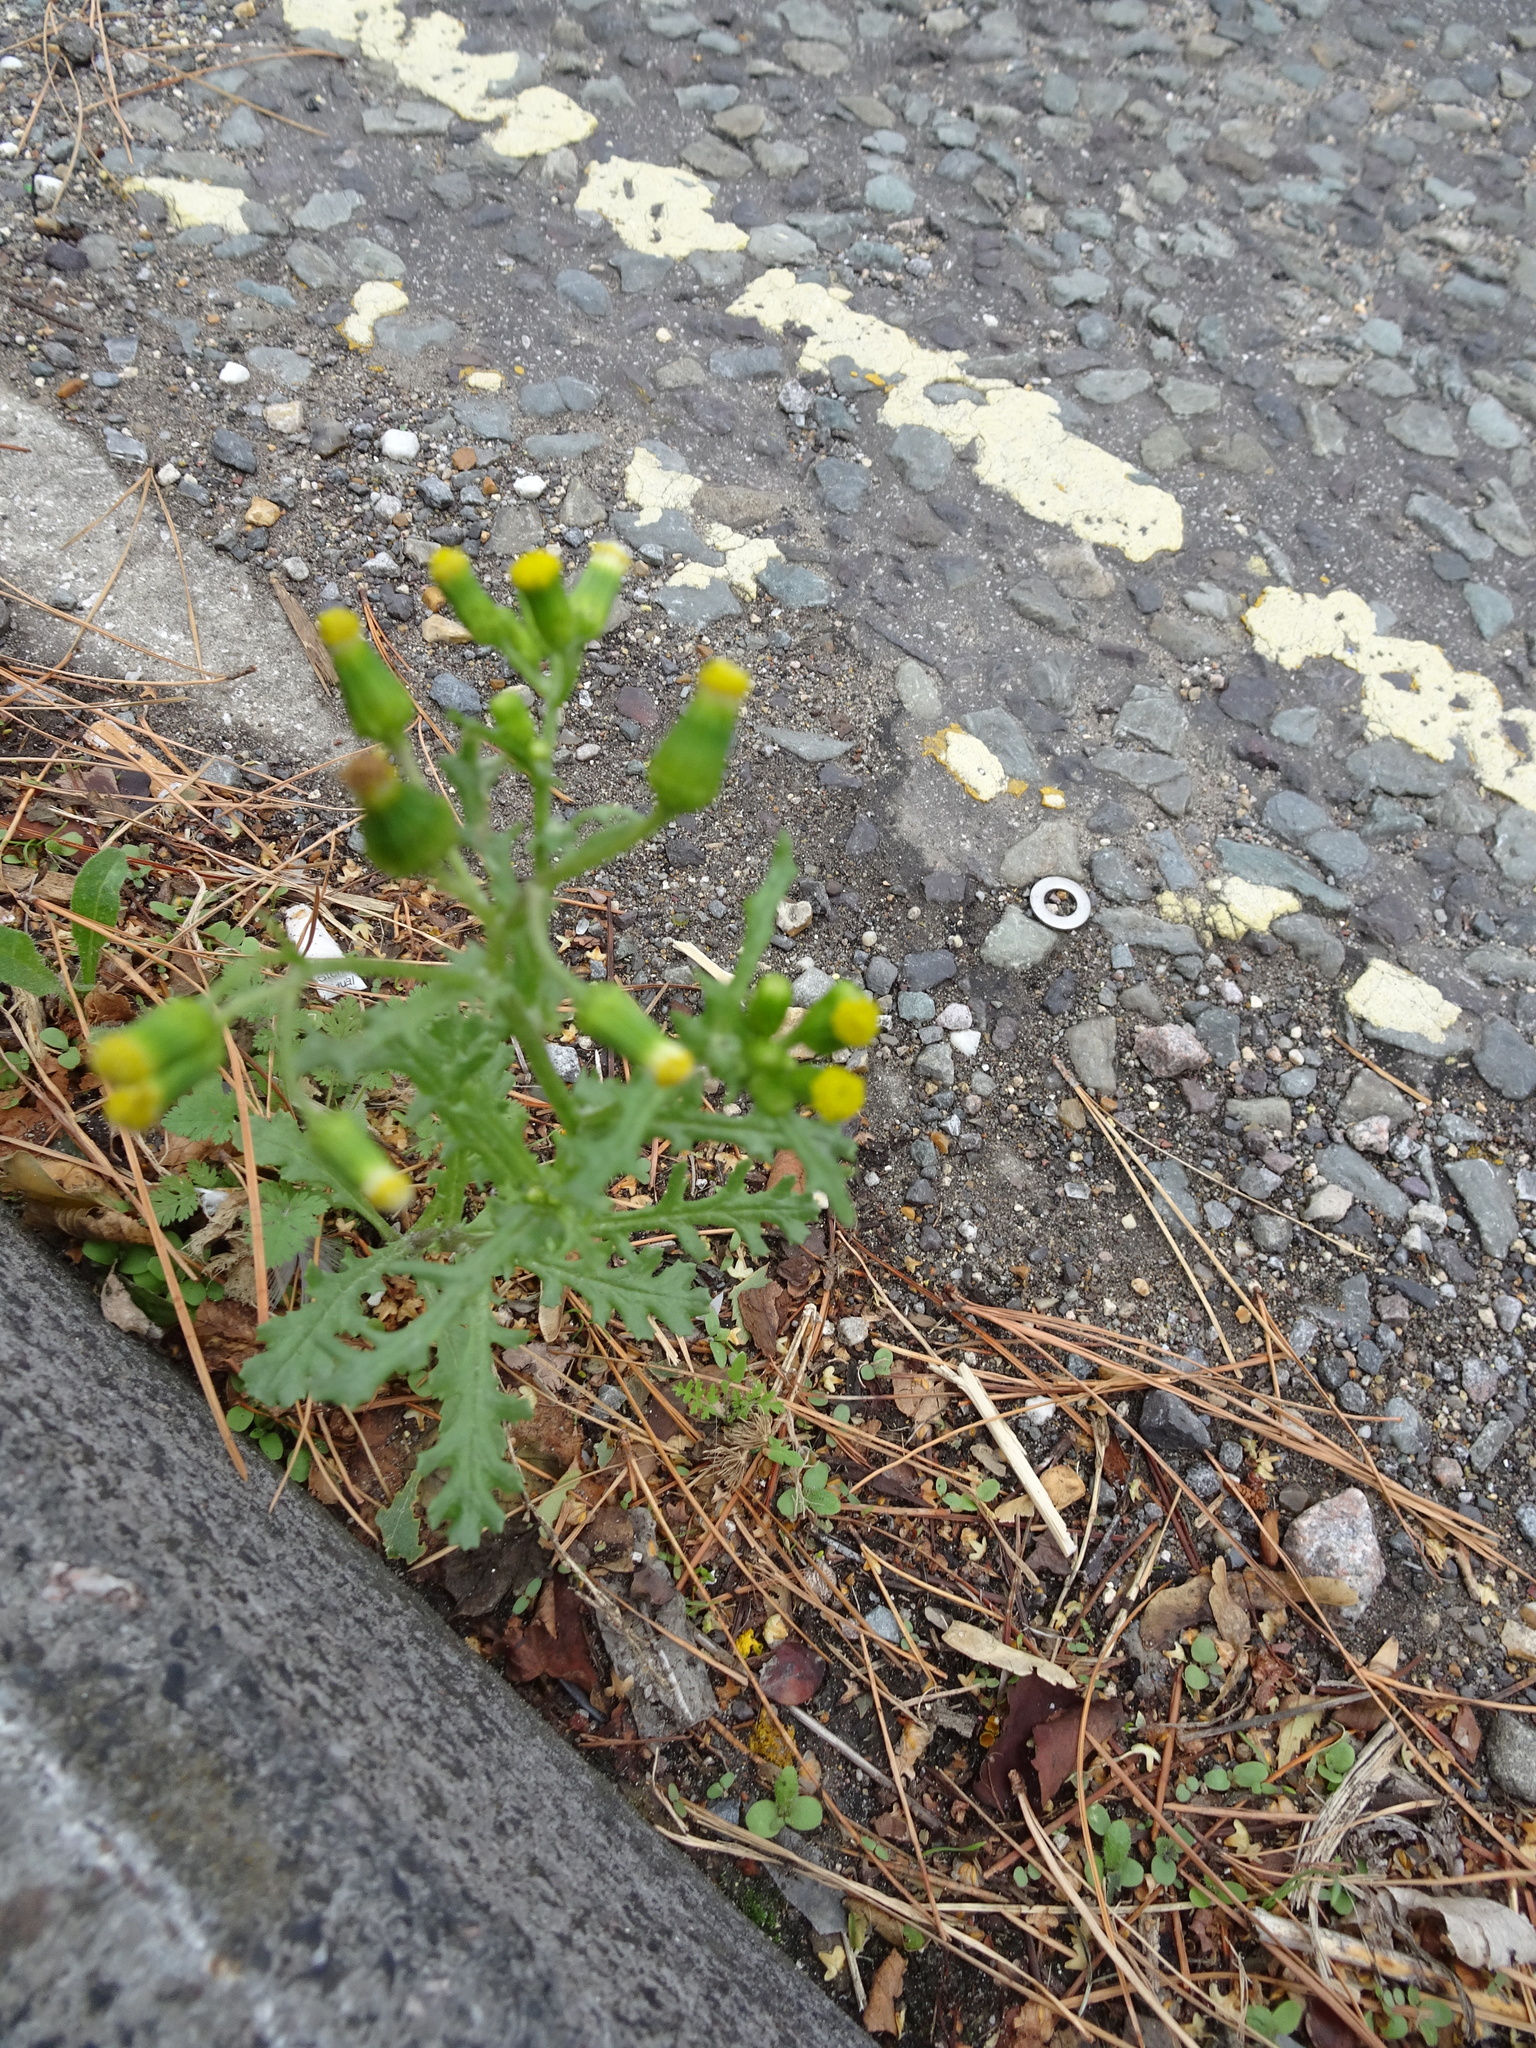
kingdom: Plantae
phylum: Tracheophyta
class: Magnoliopsida
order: Asterales
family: Asteraceae
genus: Senecio
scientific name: Senecio vulgaris
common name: Old-man-in-the-spring
